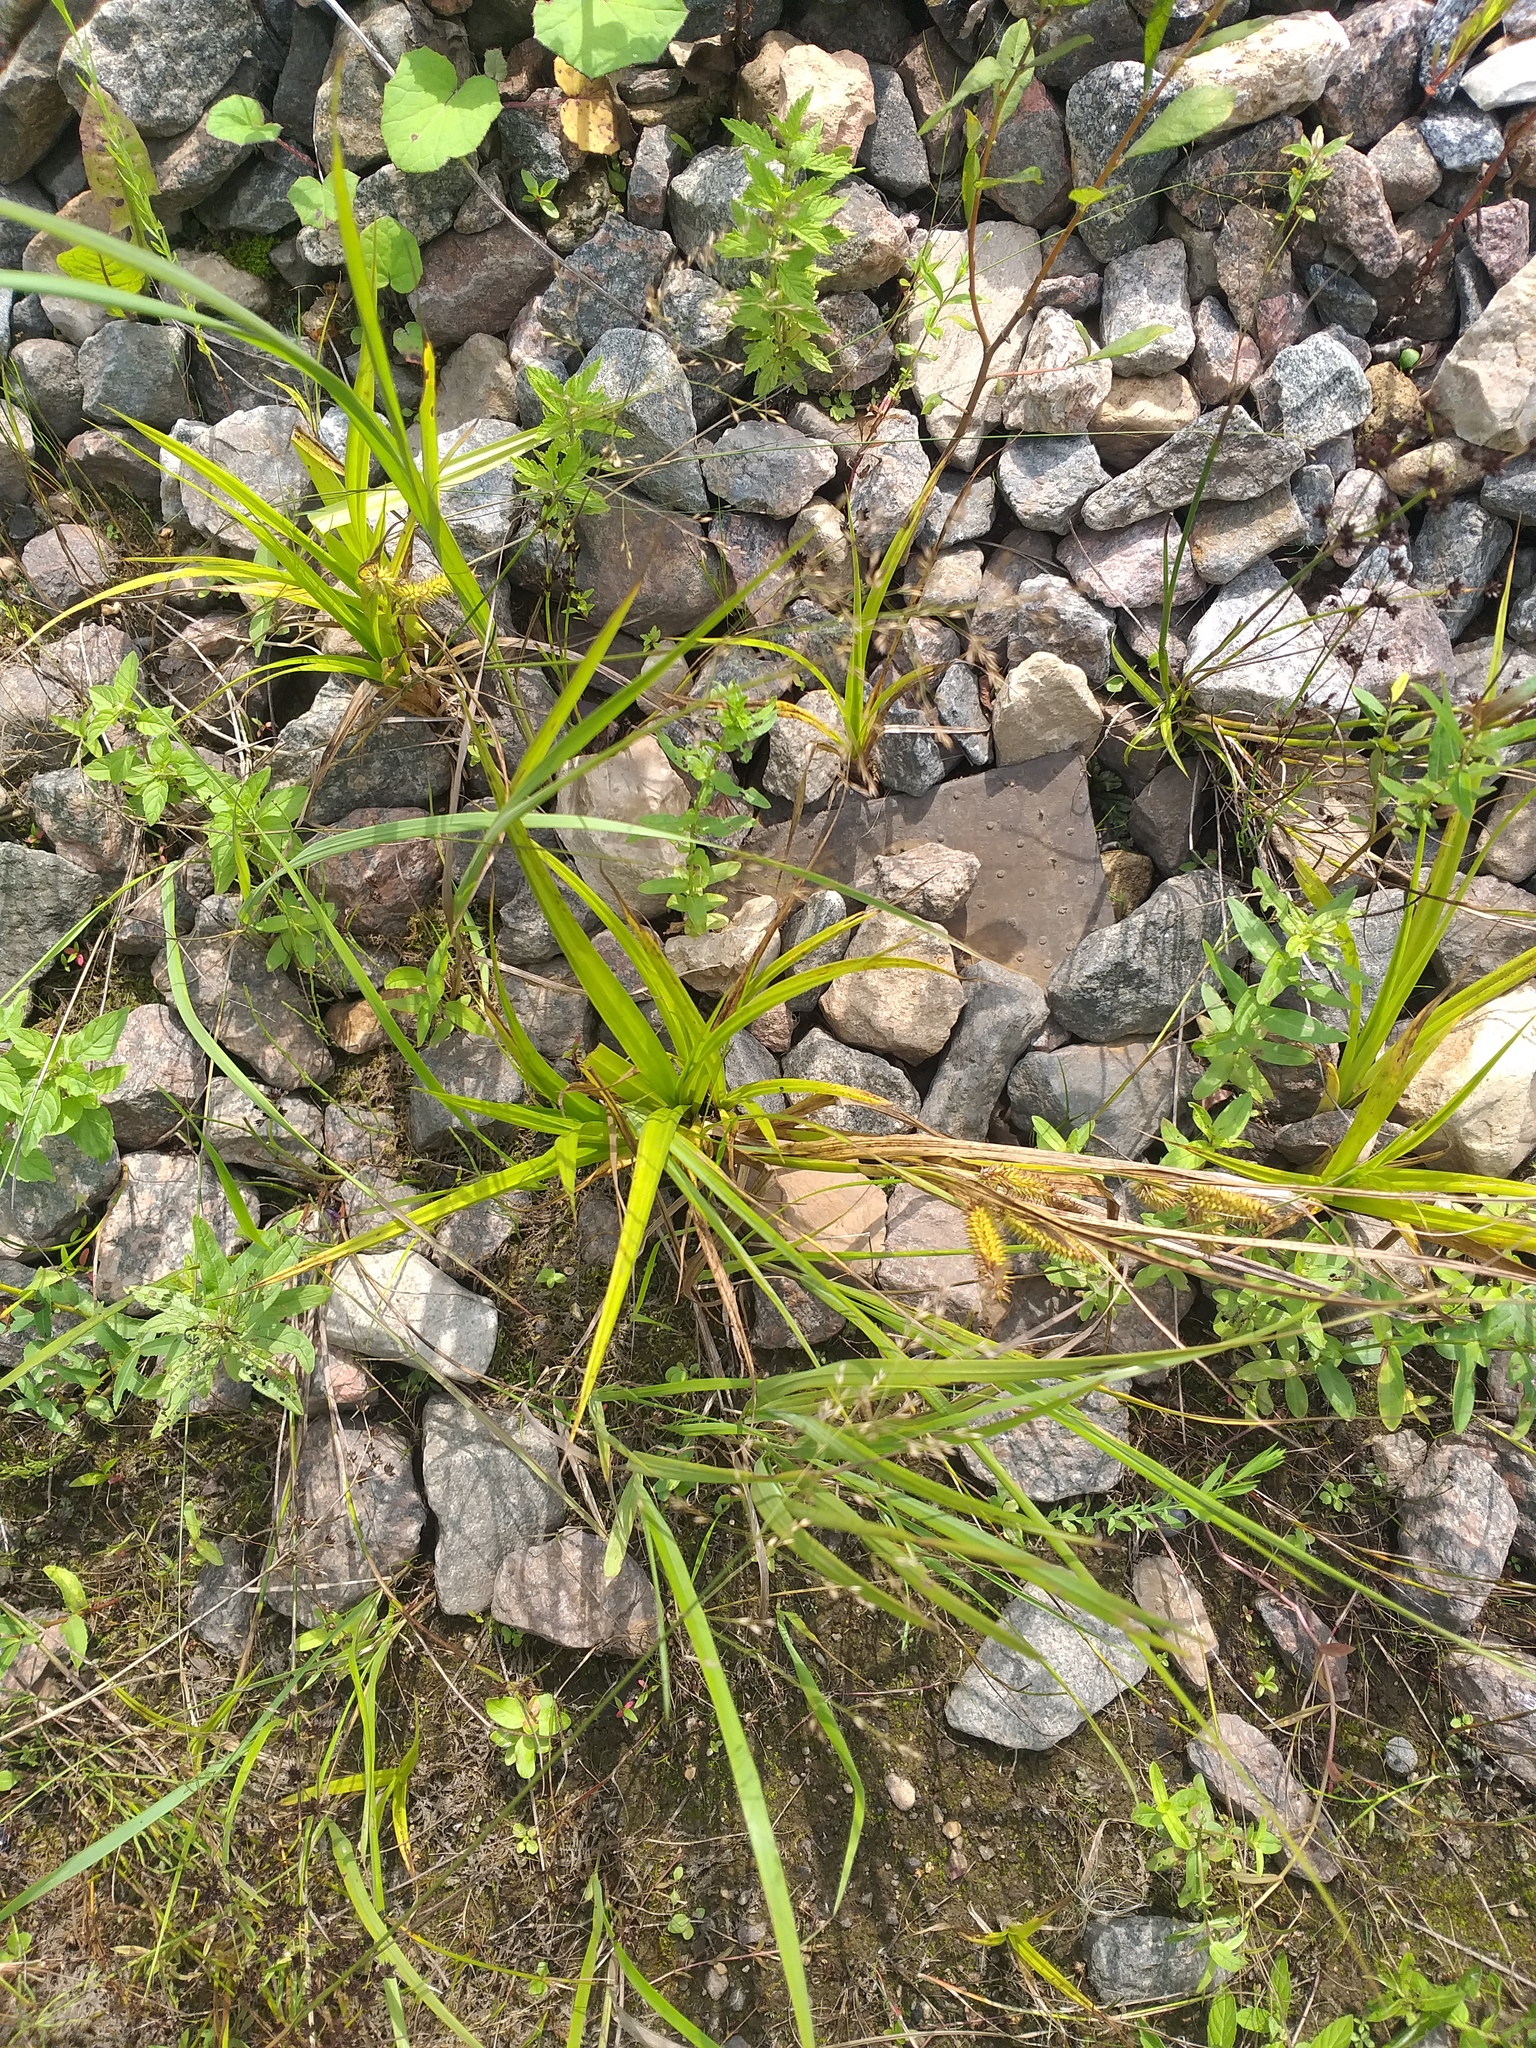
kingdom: Plantae
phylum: Tracheophyta
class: Liliopsida
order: Poales
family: Cyperaceae
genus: Carex
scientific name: Carex pseudocyperus
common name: Cyperus sedge
